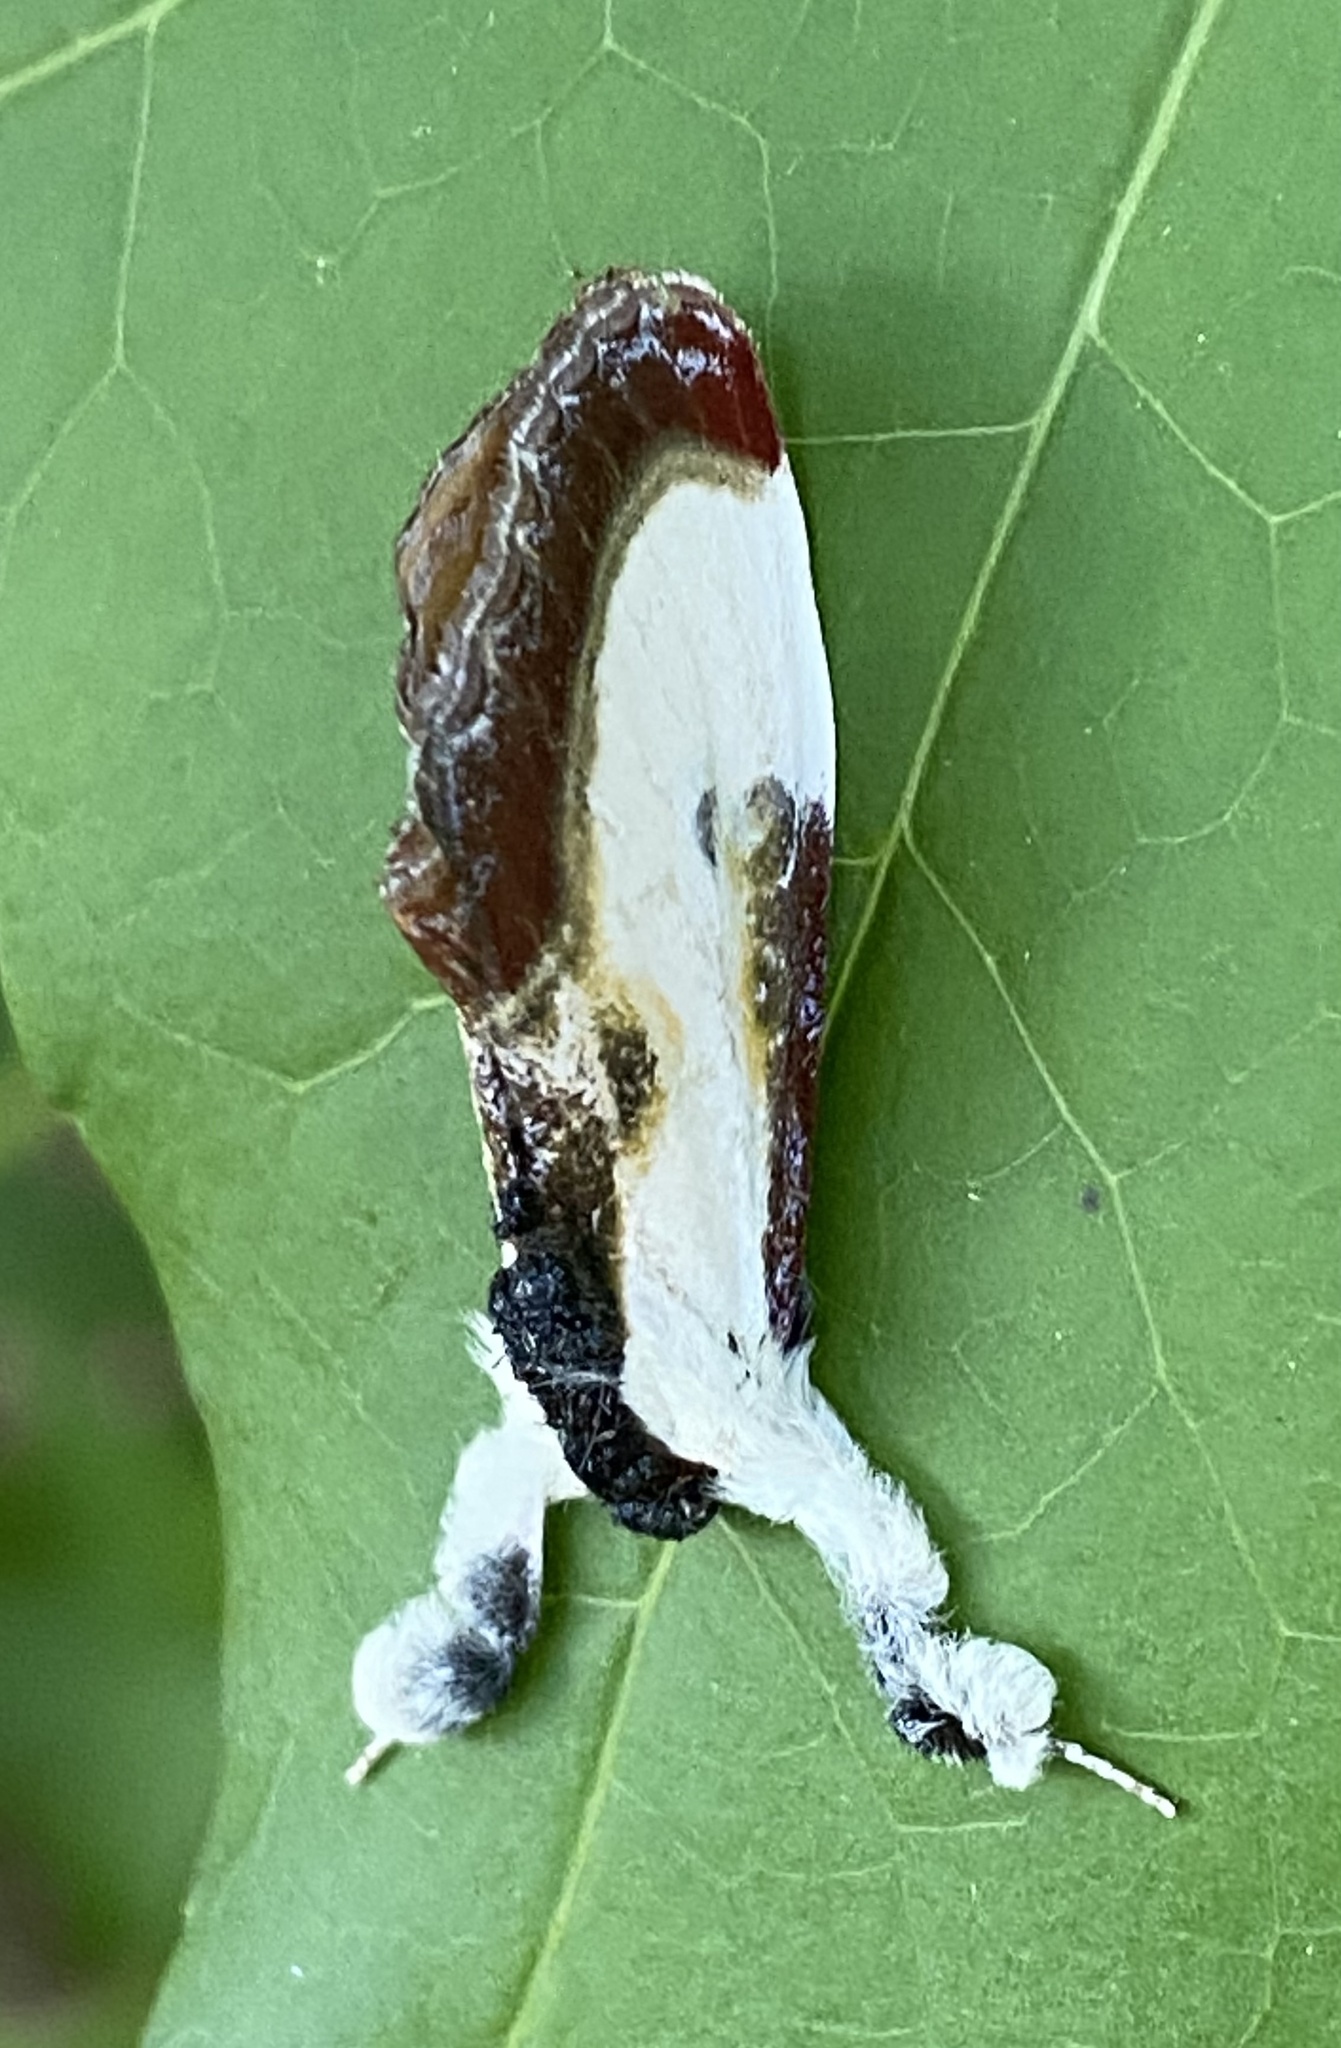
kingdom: Animalia
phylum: Arthropoda
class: Insecta
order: Lepidoptera
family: Noctuidae
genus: Eudryas
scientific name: Eudryas grata
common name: Beautiful wood-nymph
